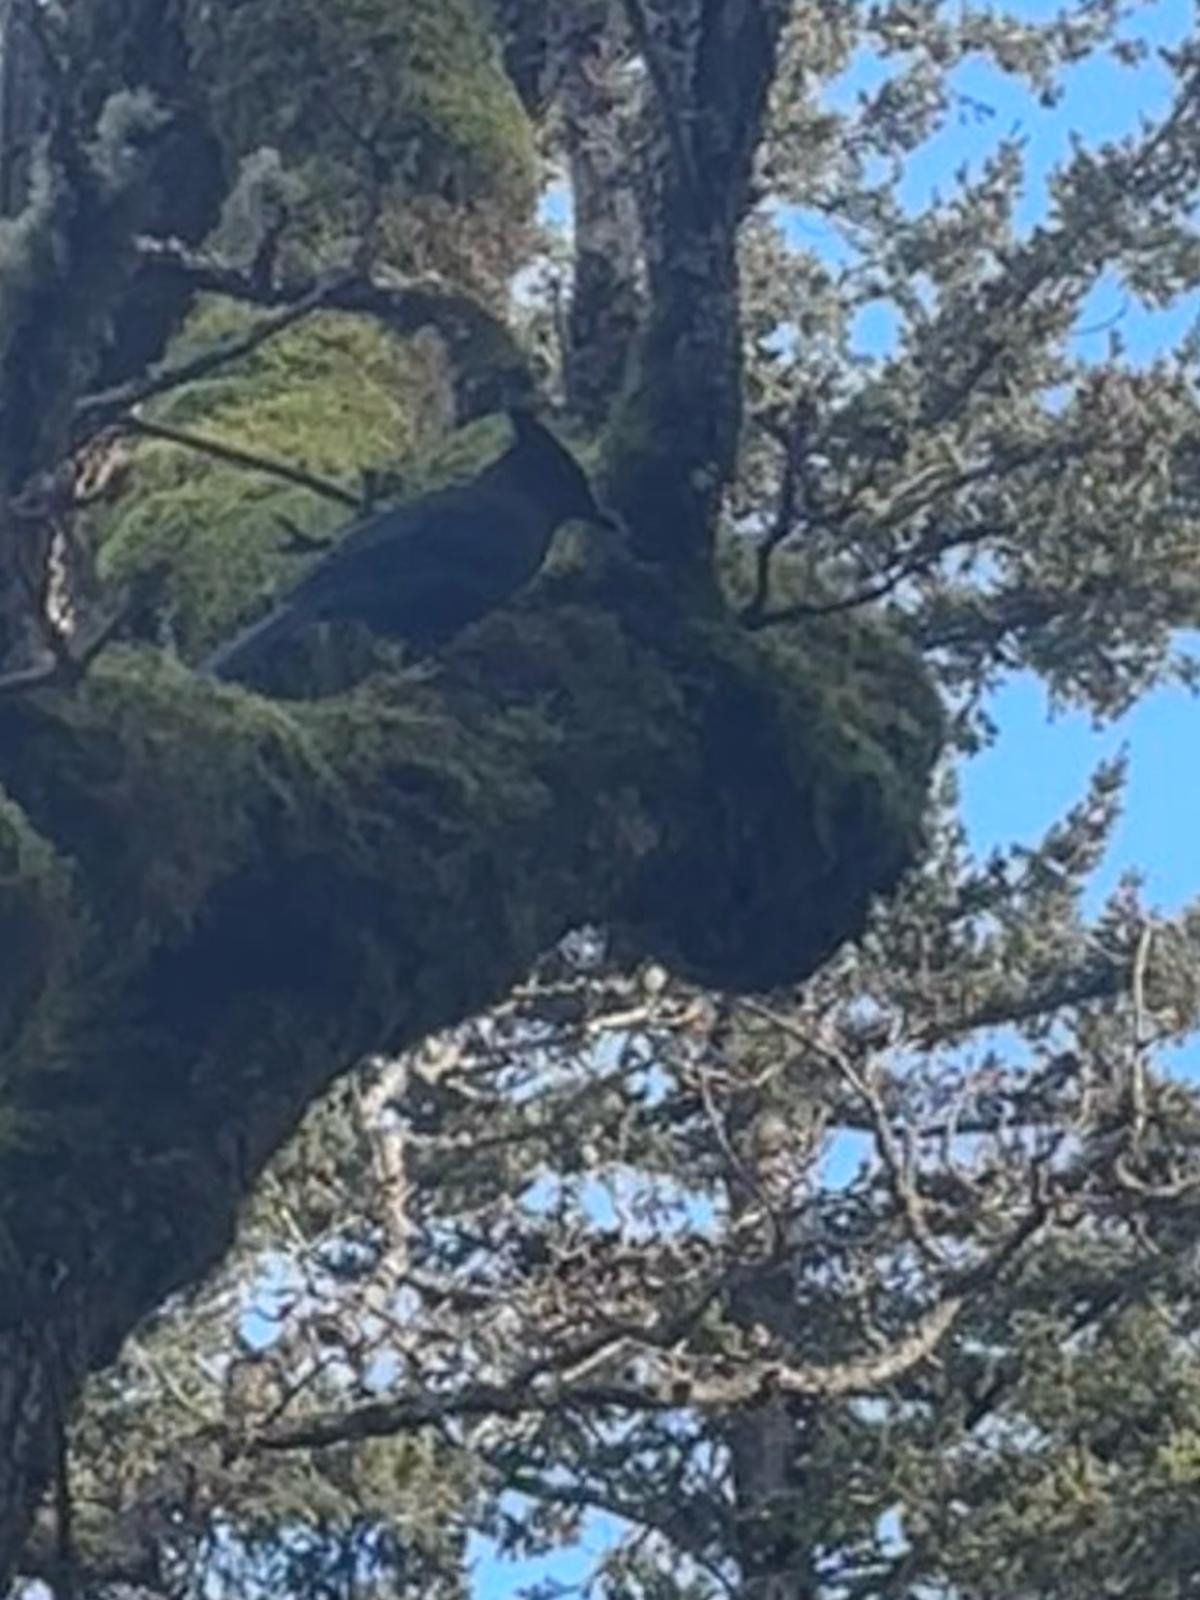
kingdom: Animalia
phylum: Chordata
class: Aves
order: Passeriformes
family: Corvidae
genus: Cyanocitta
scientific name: Cyanocitta stelleri
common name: Steller's jay
